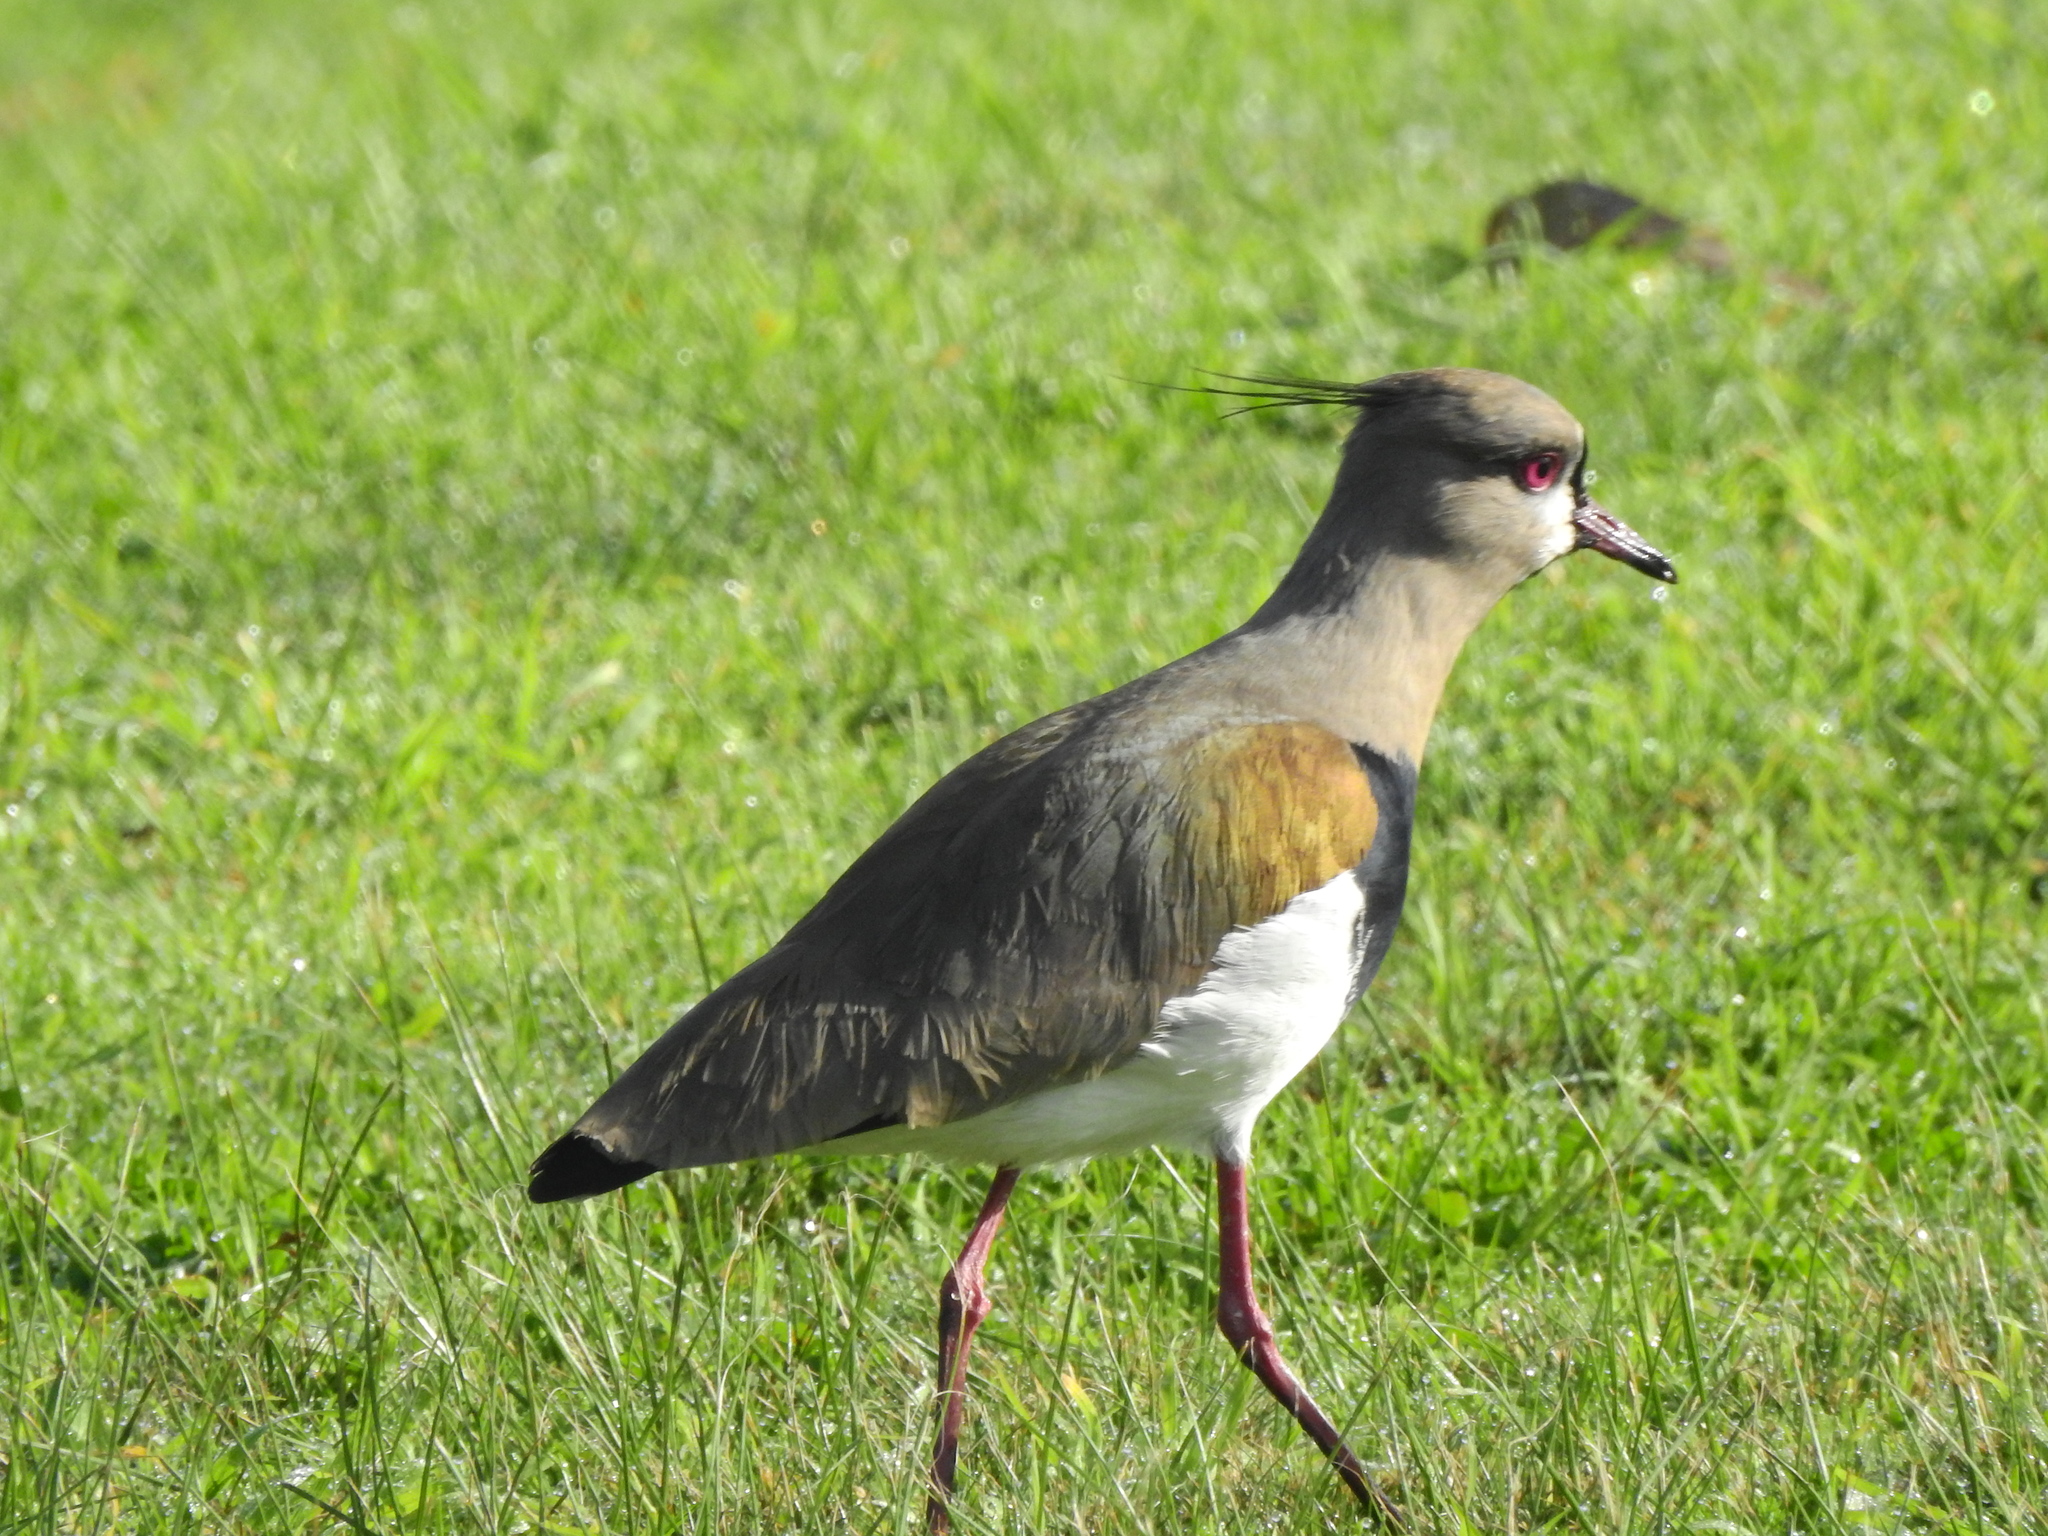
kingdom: Animalia
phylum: Chordata
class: Aves
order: Charadriiformes
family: Charadriidae
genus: Vanellus
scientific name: Vanellus chilensis
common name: Southern lapwing
